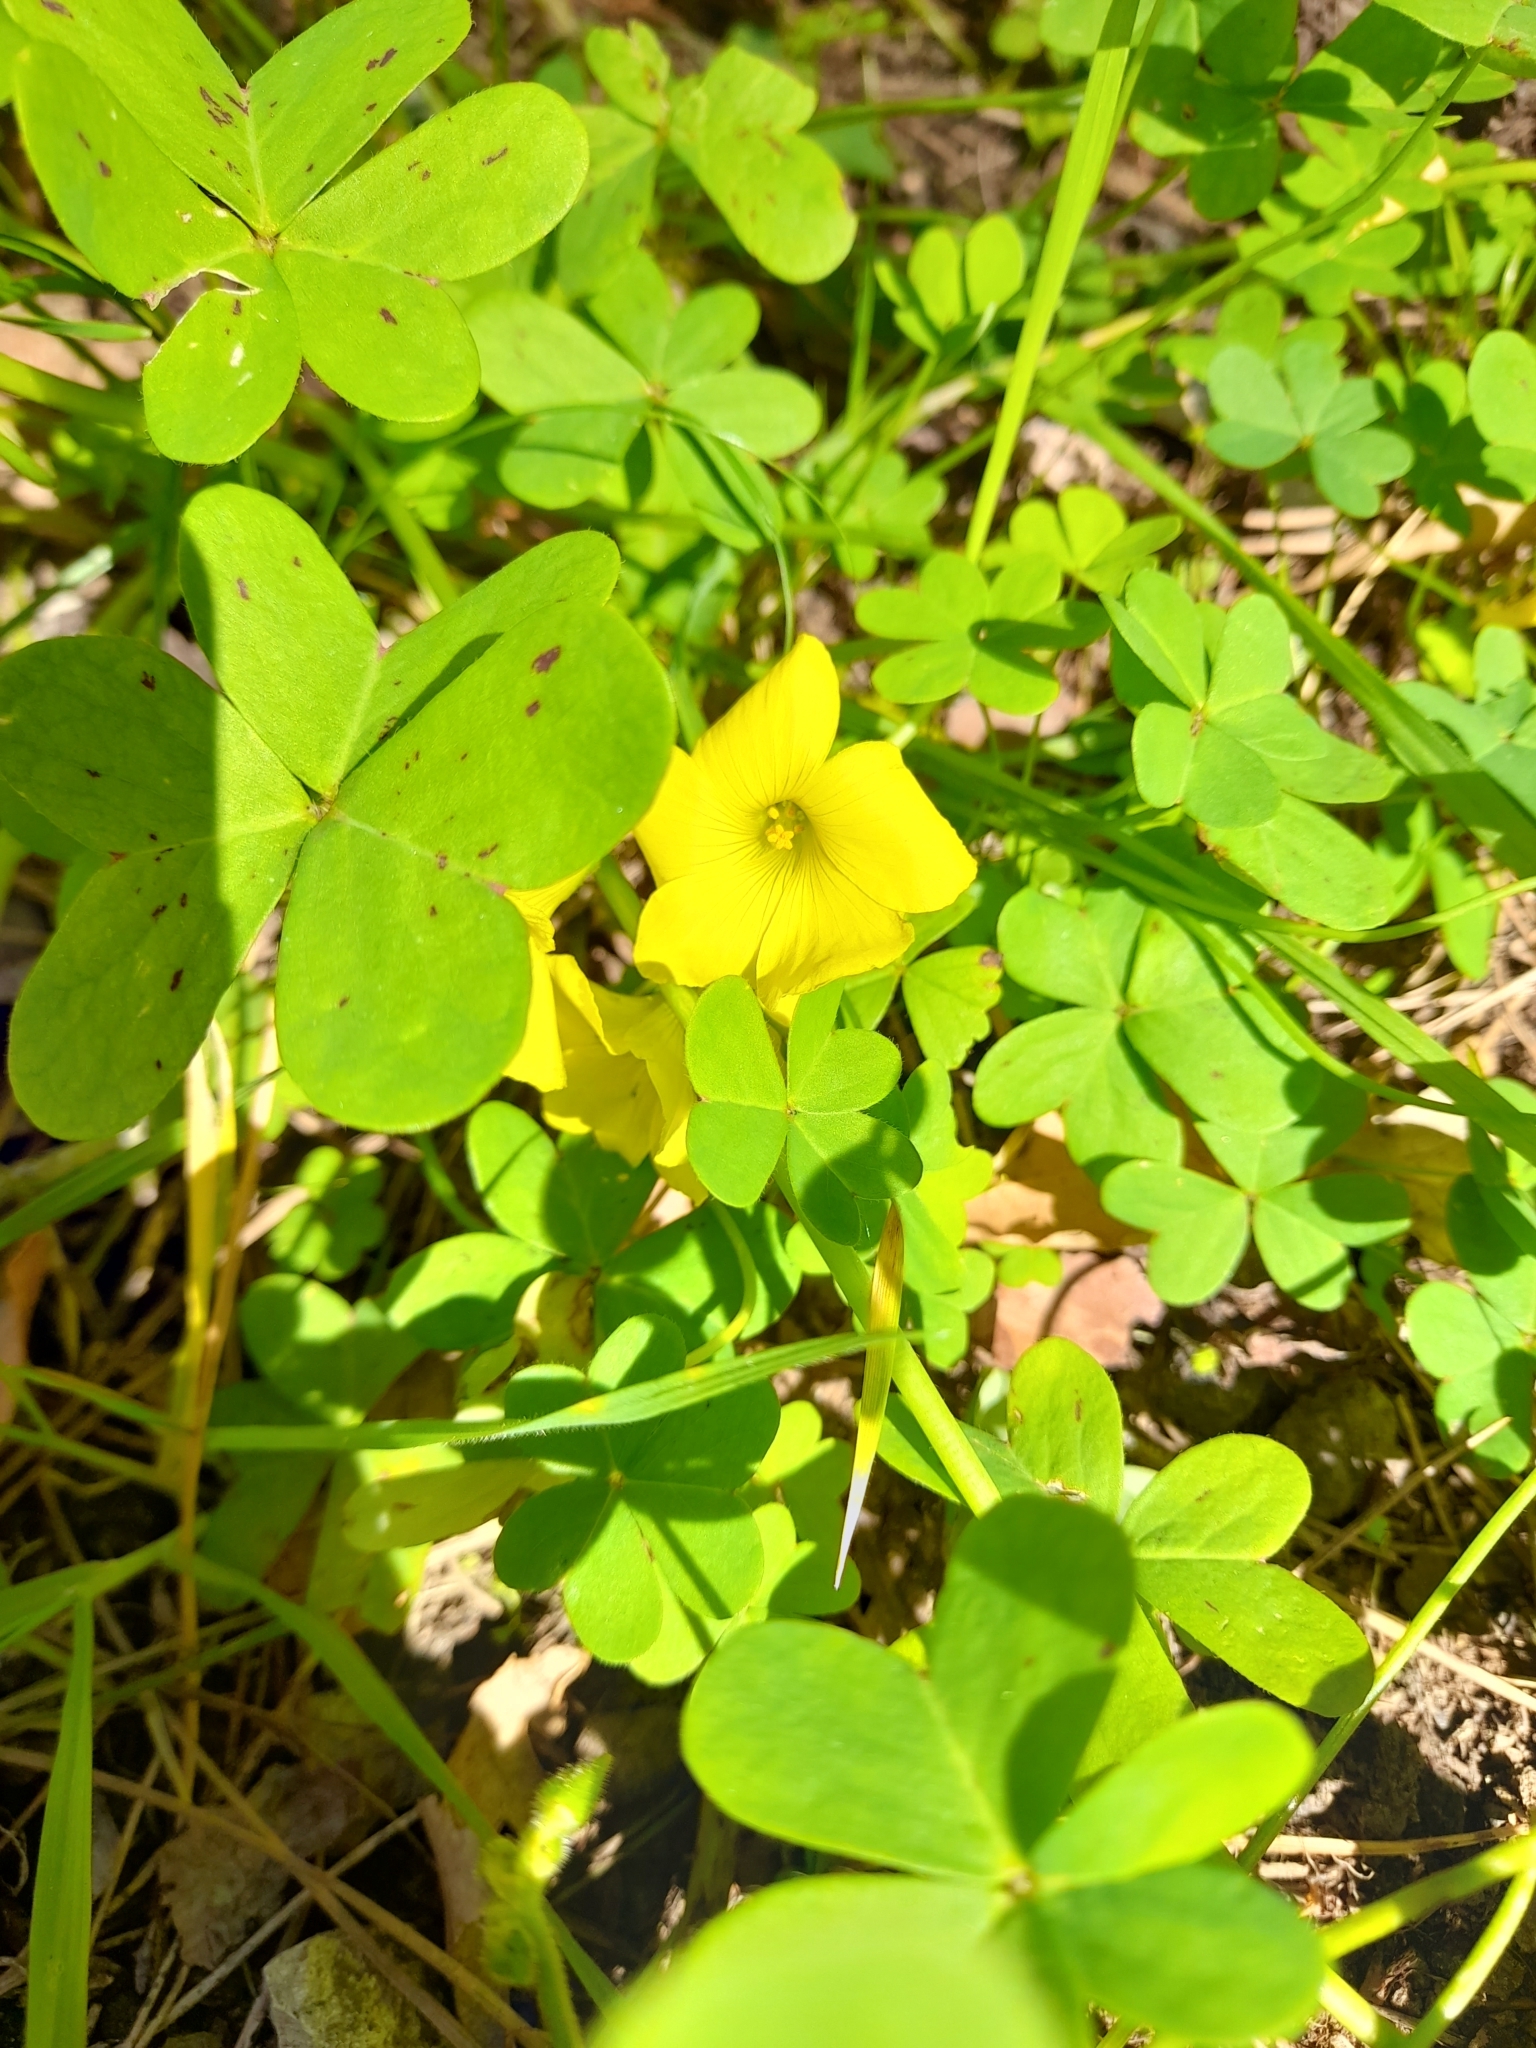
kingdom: Plantae
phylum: Tracheophyta
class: Magnoliopsida
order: Oxalidales
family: Oxalidaceae
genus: Oxalis
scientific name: Oxalis pes-caprae
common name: Bermuda-buttercup
